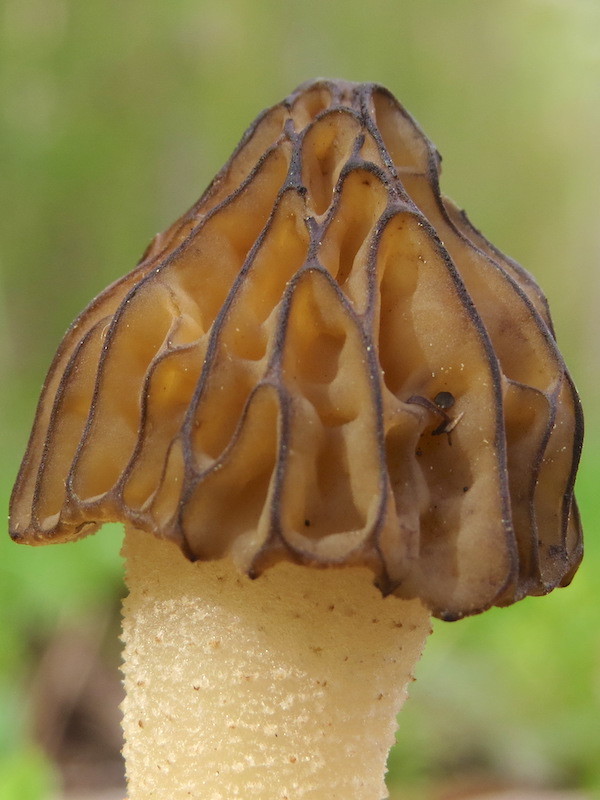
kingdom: Fungi
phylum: Ascomycota
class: Pezizomycetes
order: Pezizales
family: Morchellaceae
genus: Morchella
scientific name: Morchella punctipes
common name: Half-free morel
